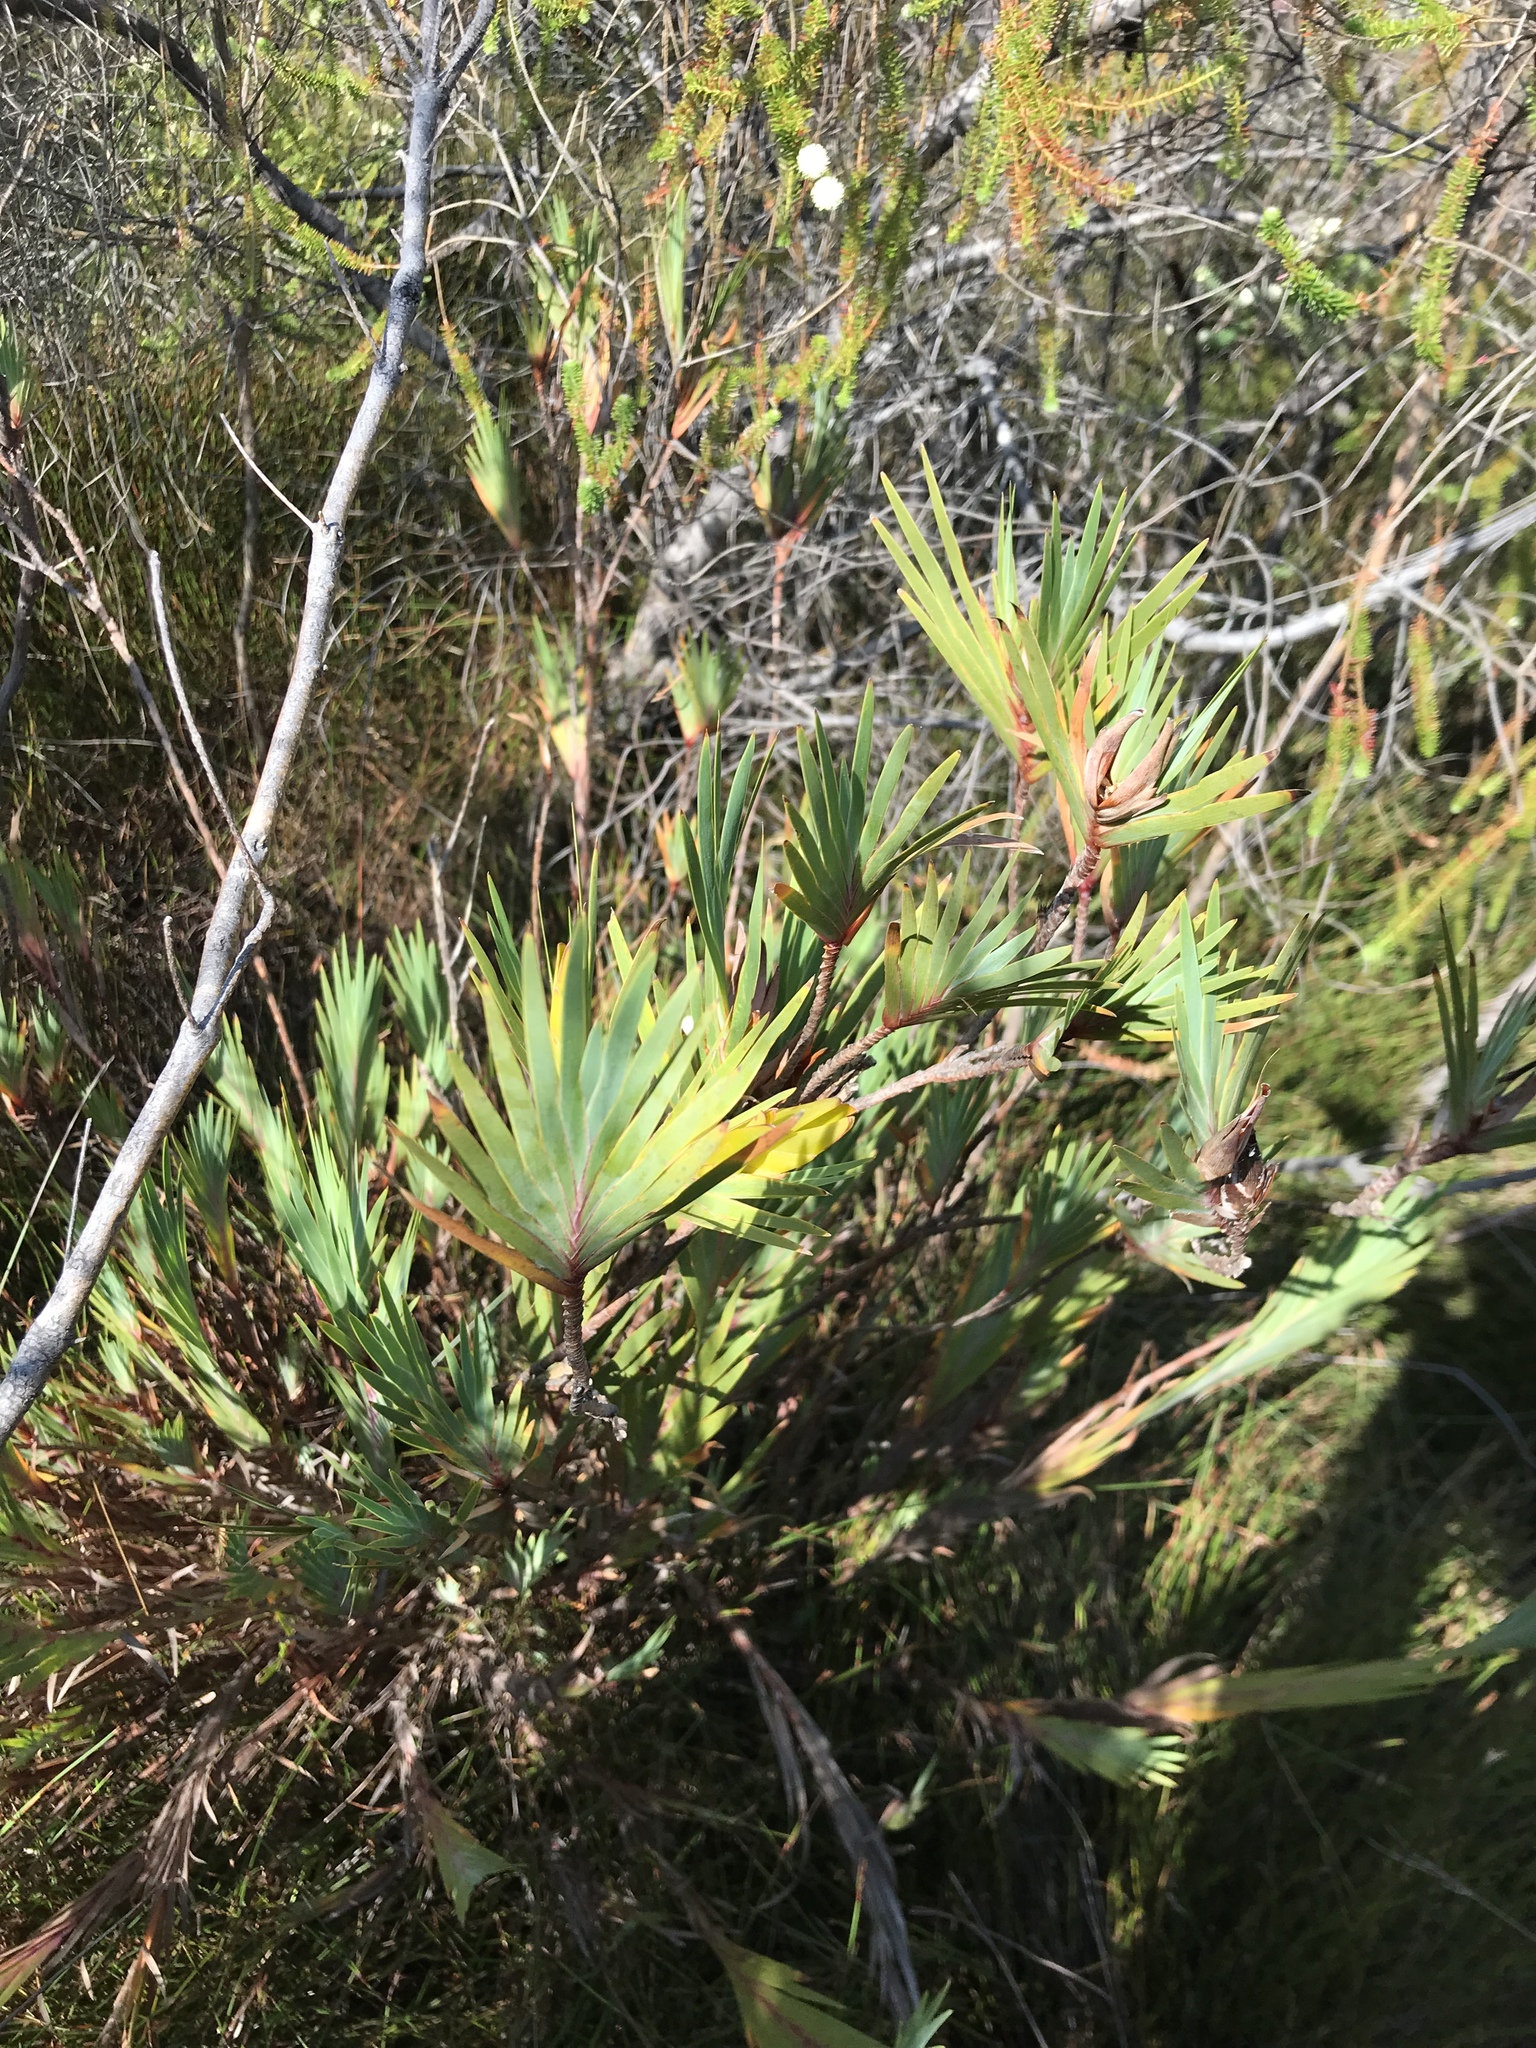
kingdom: Plantae
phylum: Tracheophyta
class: Liliopsida
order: Asparagales
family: Iridaceae
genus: Witsenia
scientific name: Witsenia maura
